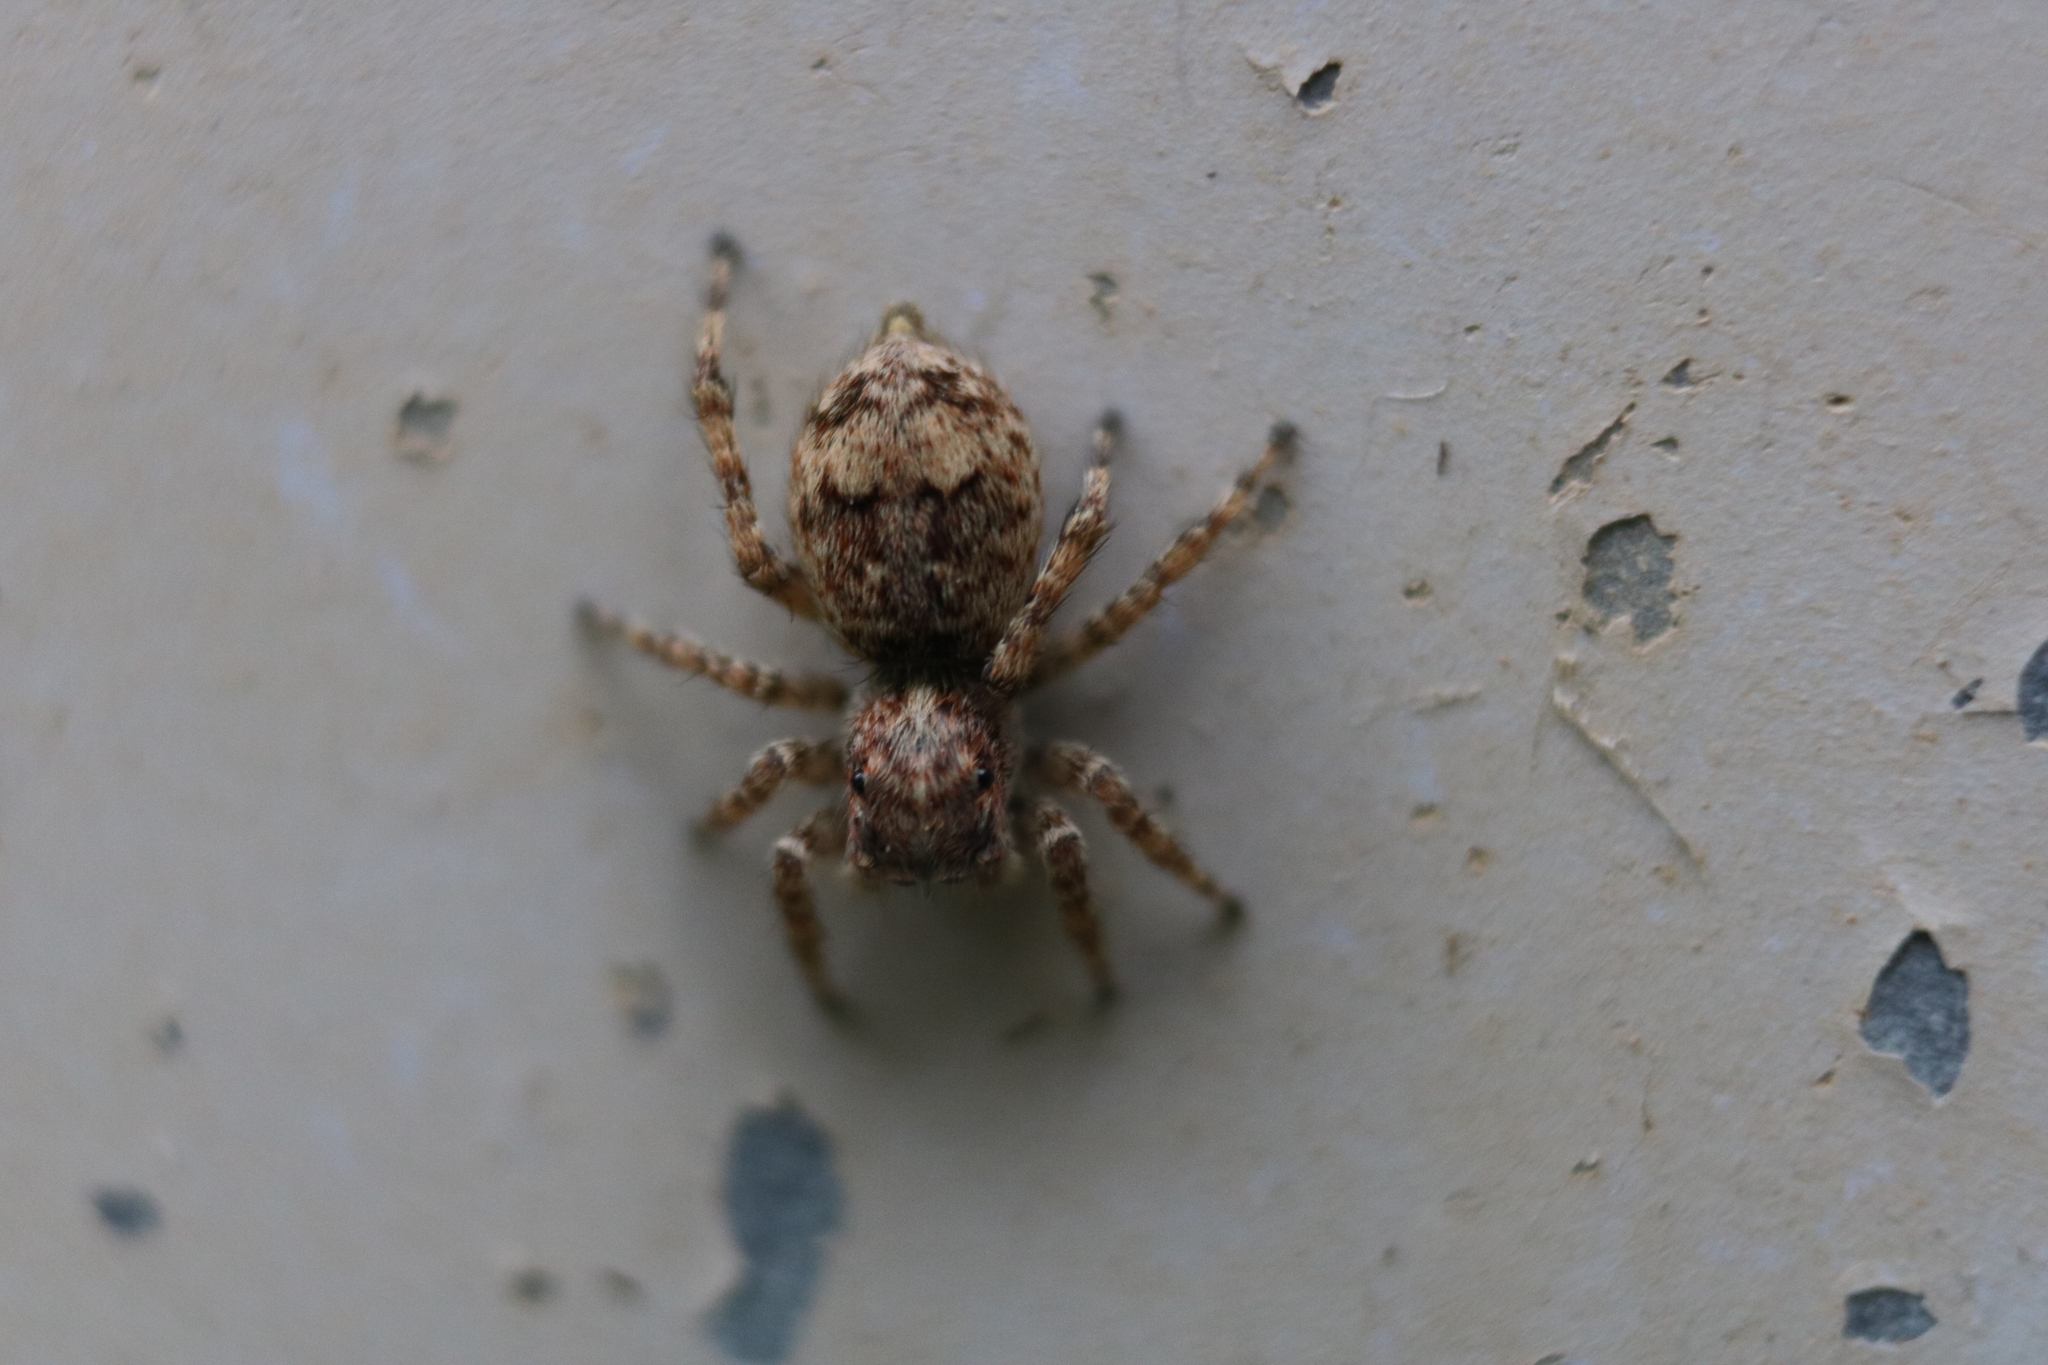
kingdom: Animalia
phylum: Arthropoda
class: Arachnida
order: Araneae
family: Salticidae
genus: Attulus
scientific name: Attulus fasciger
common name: Asiatic wall jumping spider
